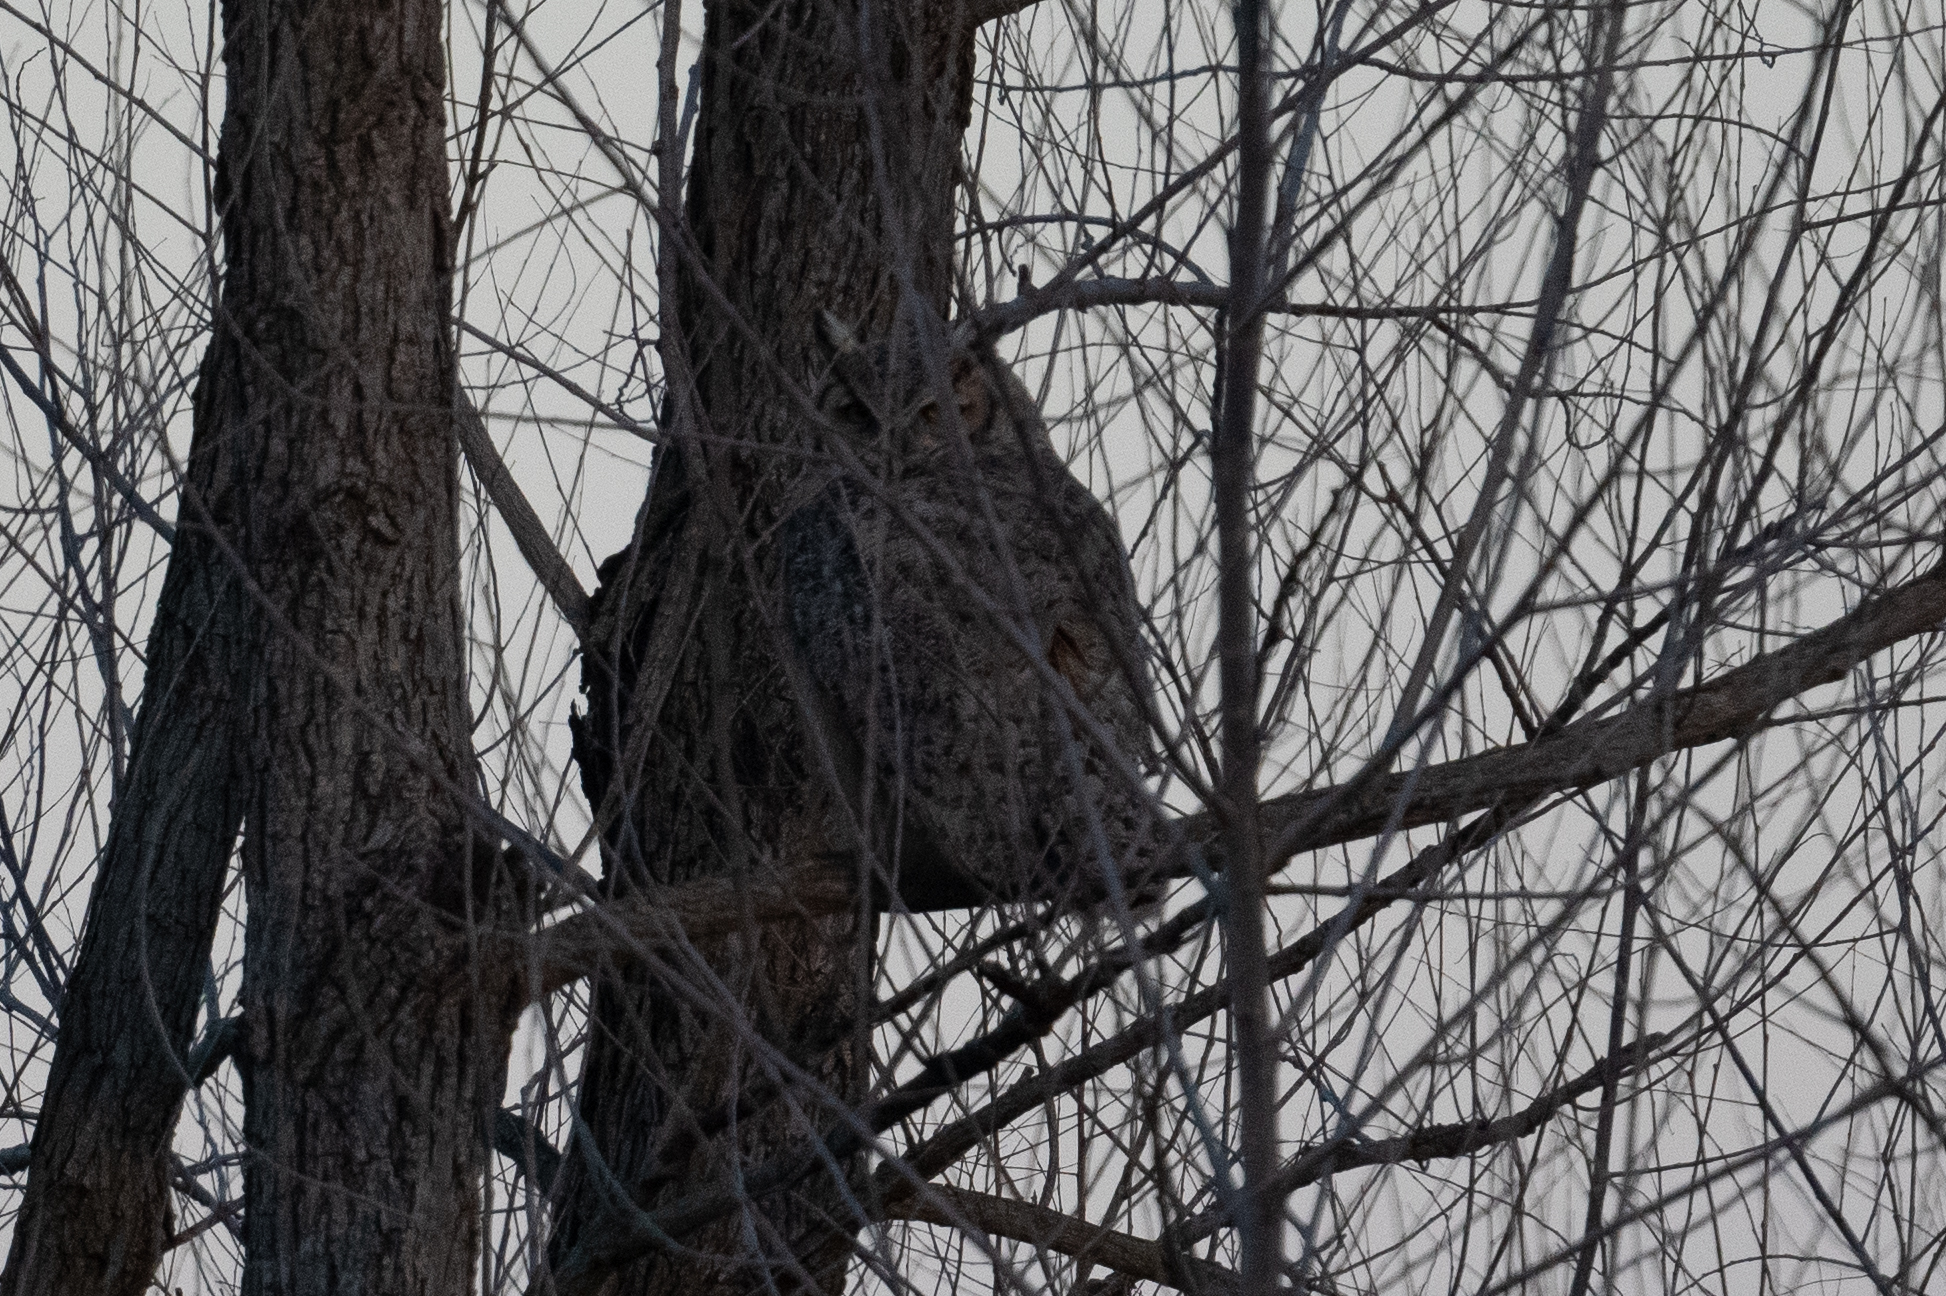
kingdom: Animalia
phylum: Chordata
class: Aves
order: Strigiformes
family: Strigidae
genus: Bubo
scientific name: Bubo virginianus
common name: Great horned owl
